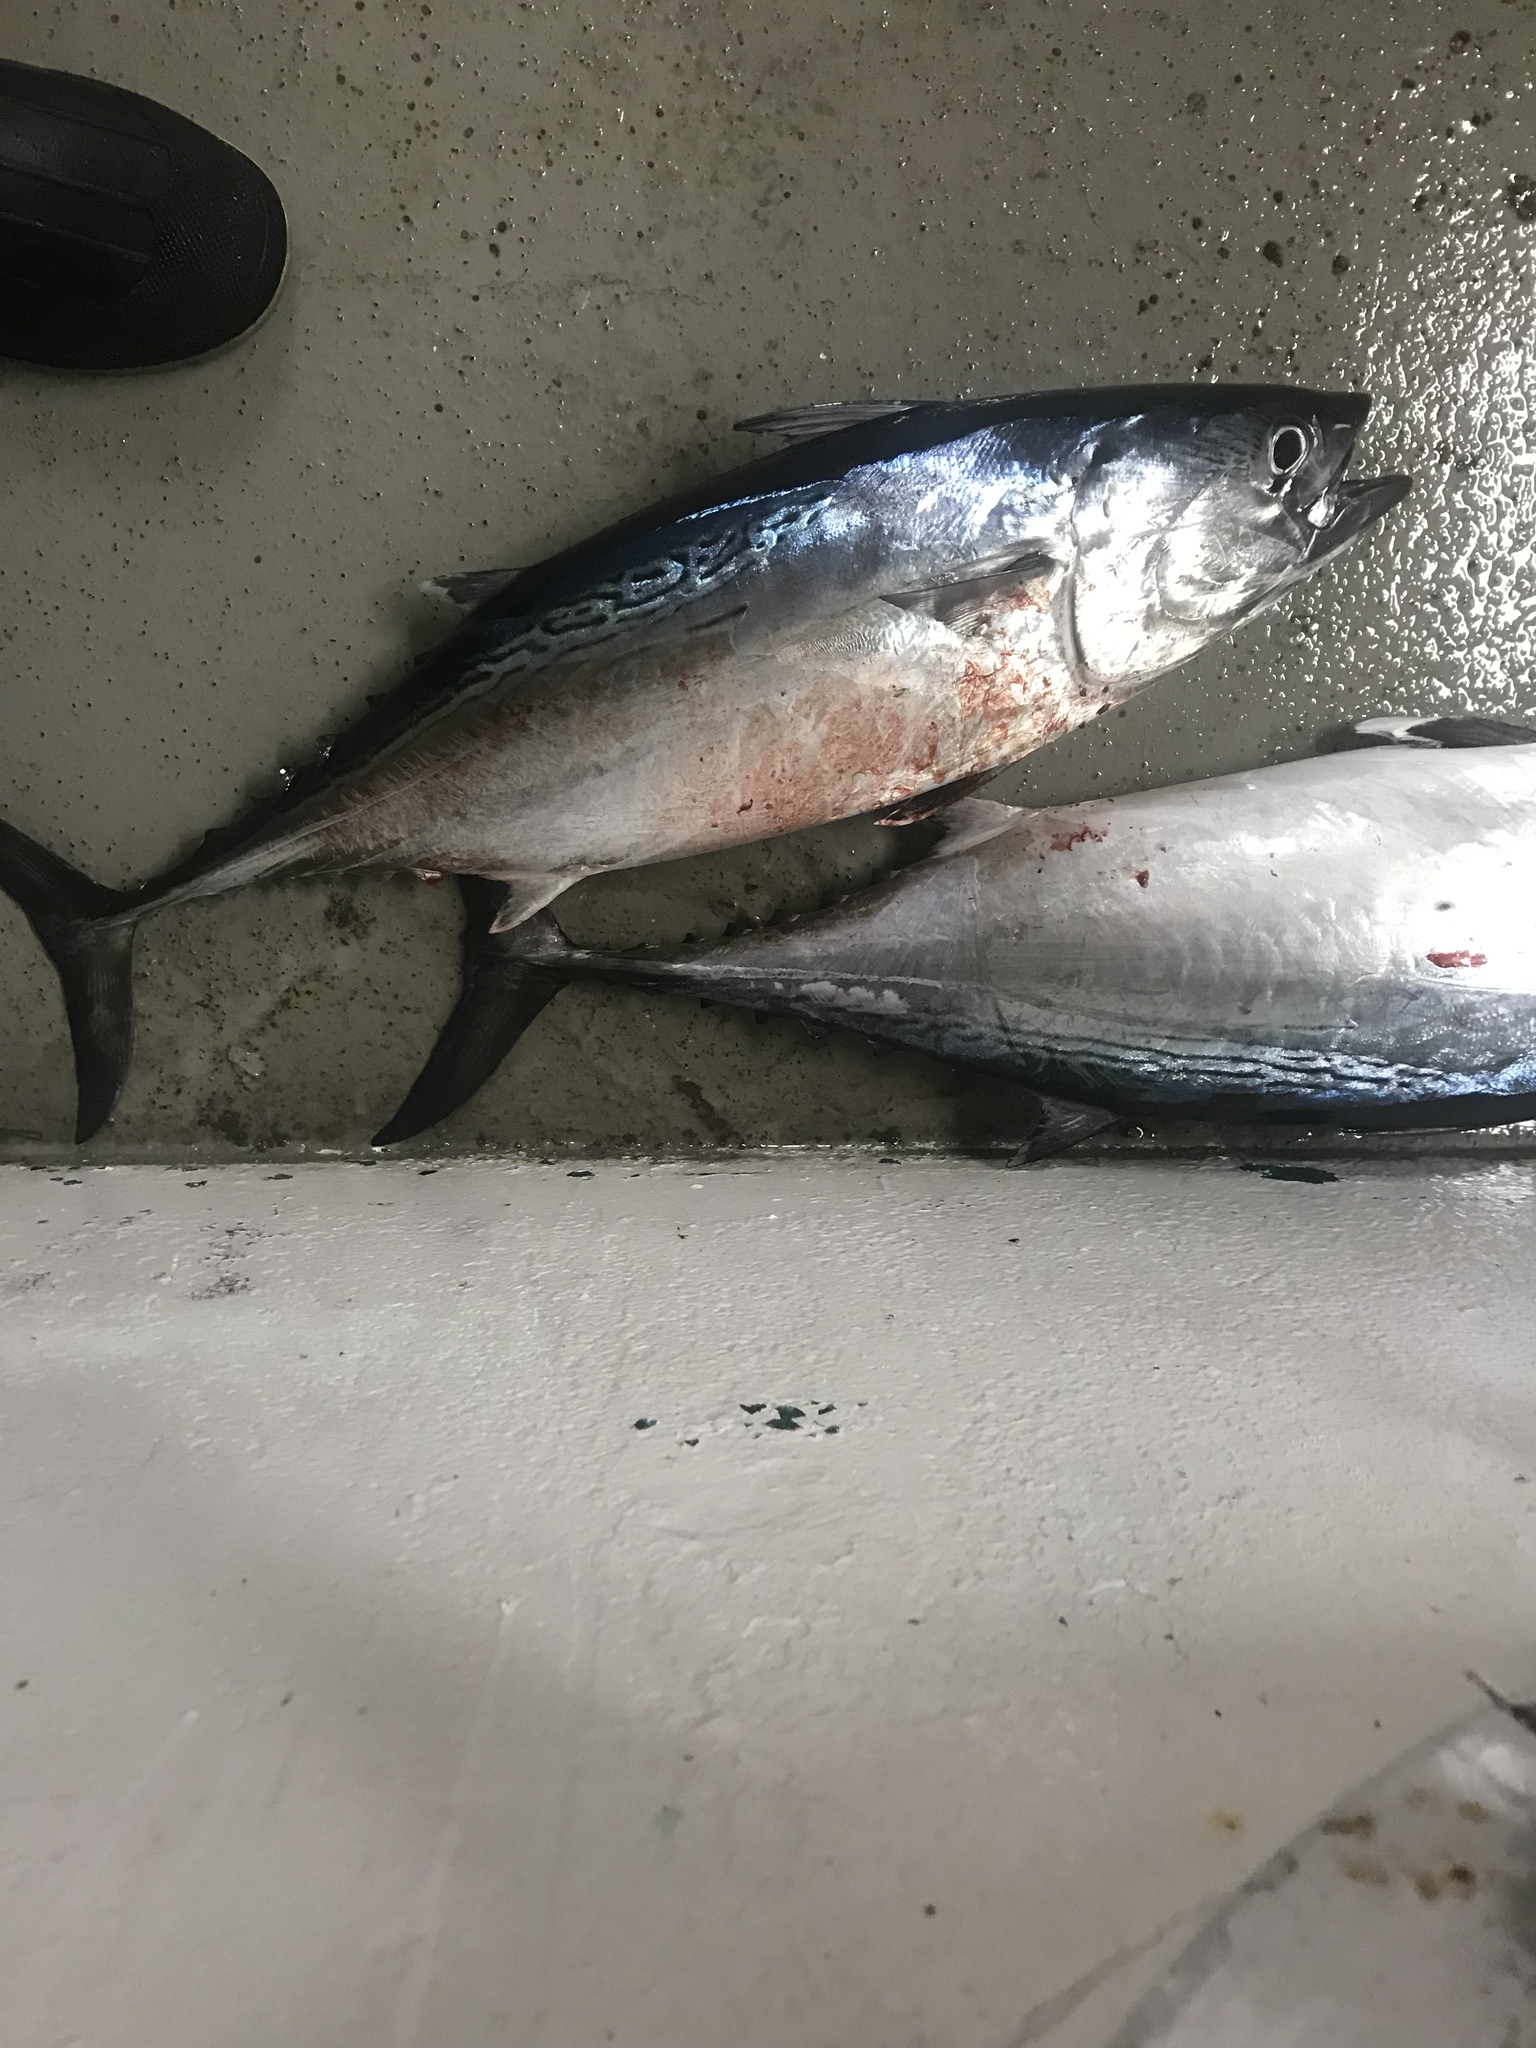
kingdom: Animalia
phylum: Chordata
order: Perciformes
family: Scombridae
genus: Euthynnus
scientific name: Euthynnus alletteratus
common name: Little tunny
